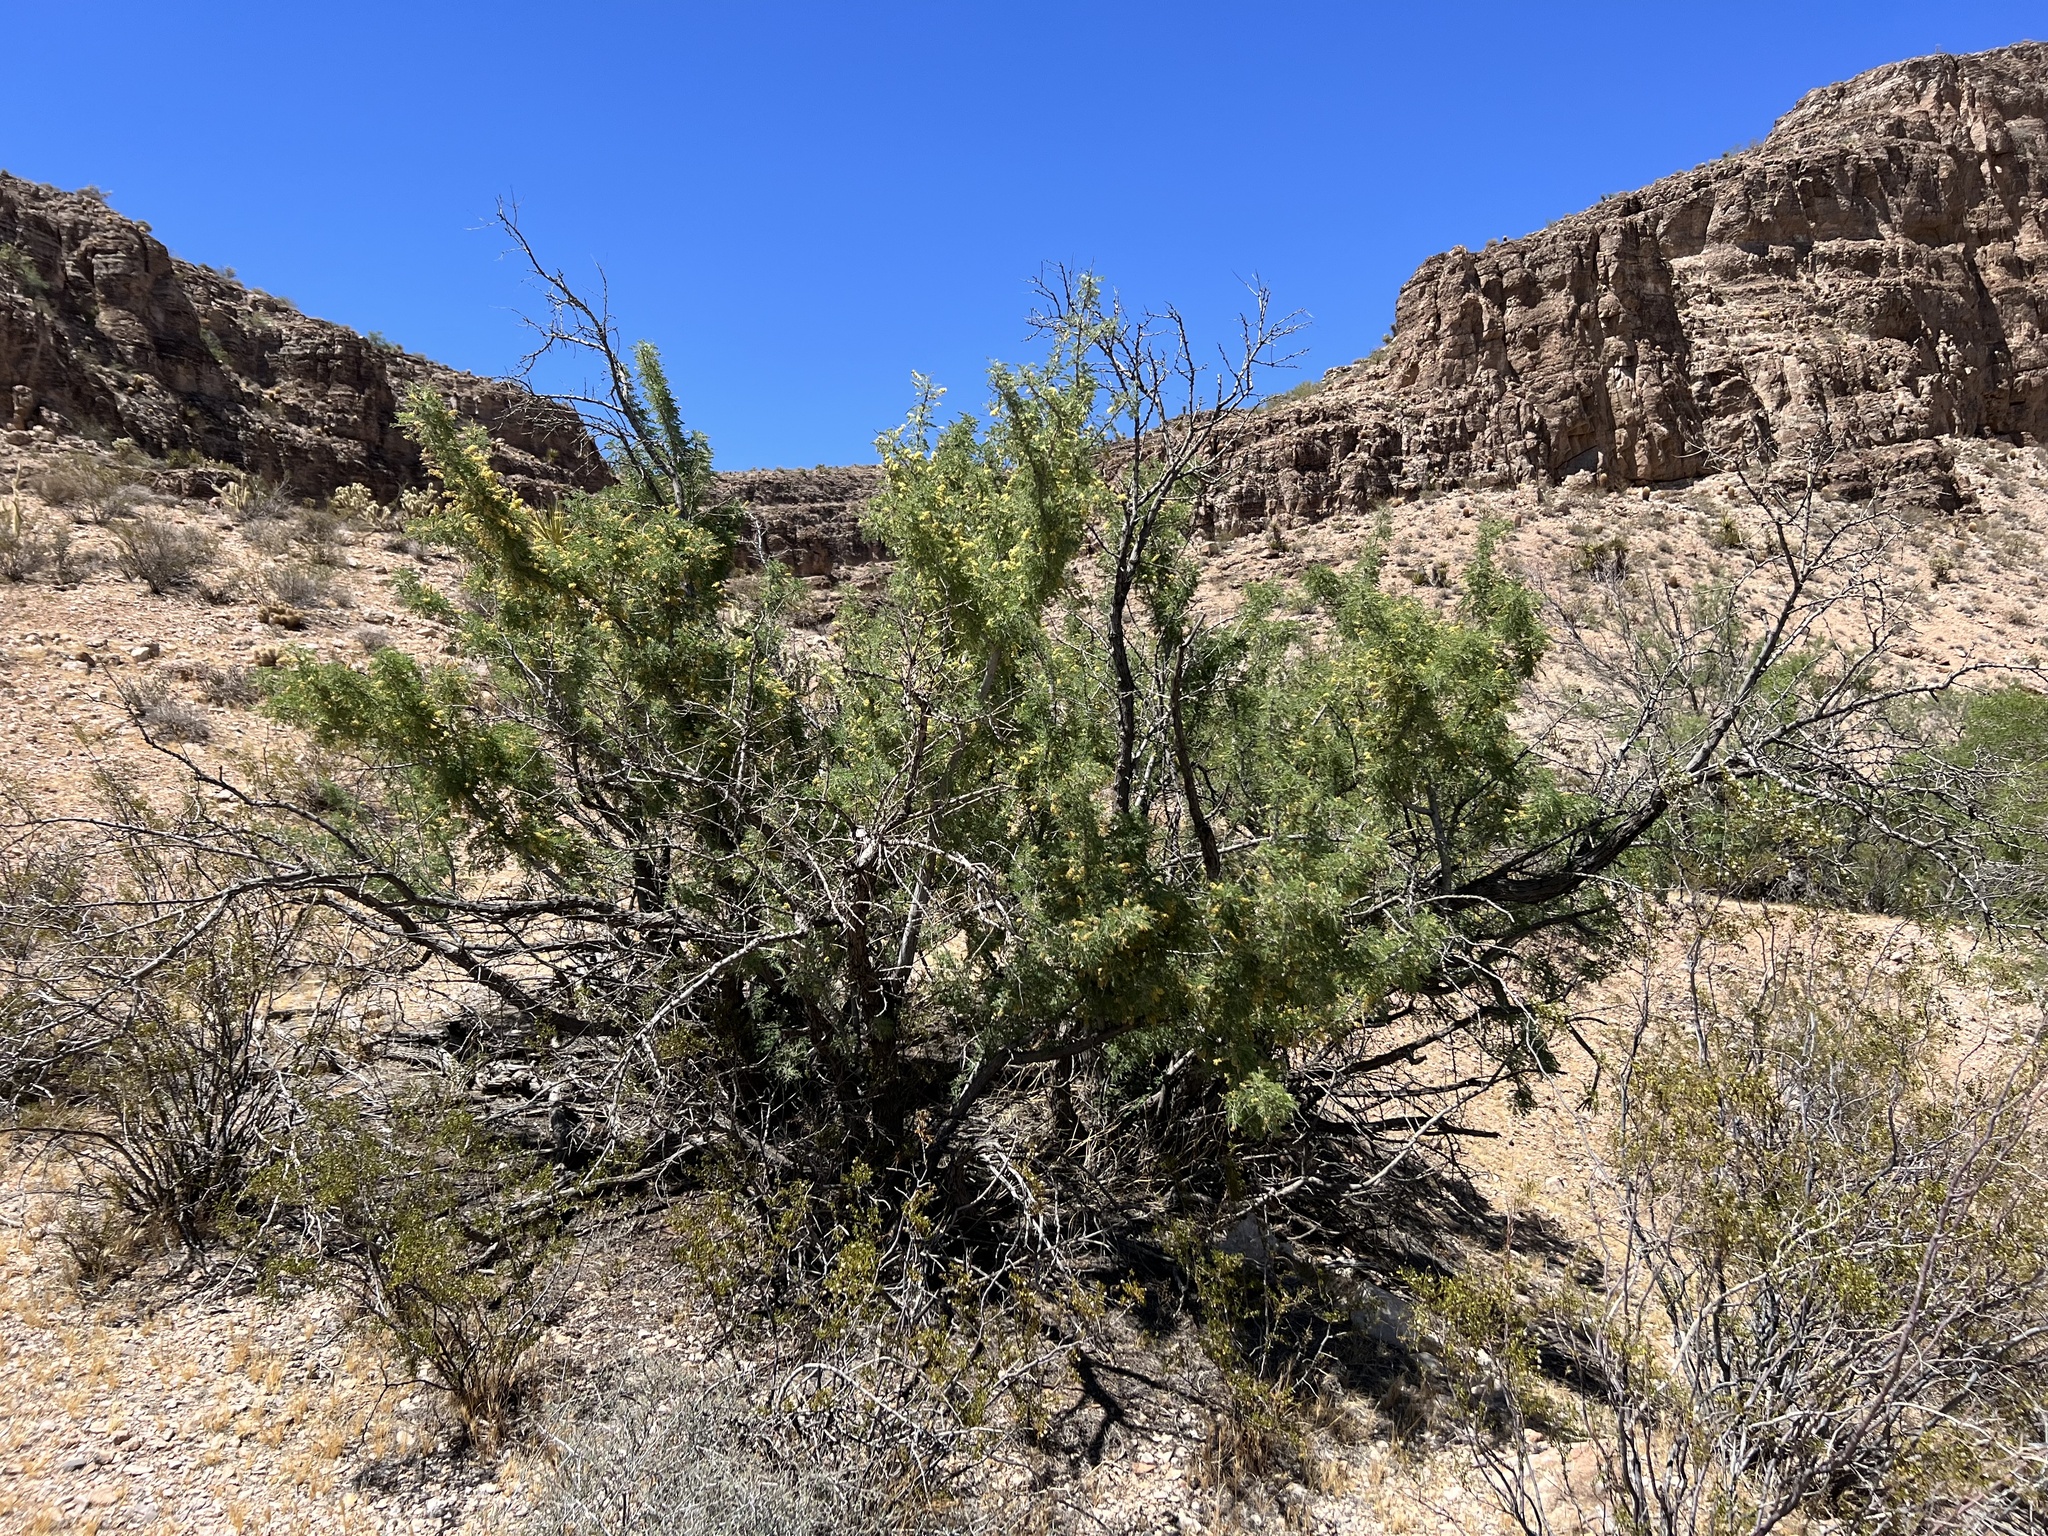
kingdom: Plantae
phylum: Tracheophyta
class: Magnoliopsida
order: Fabales
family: Fabaceae
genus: Senegalia
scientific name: Senegalia greggii
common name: Texas-mimosa
